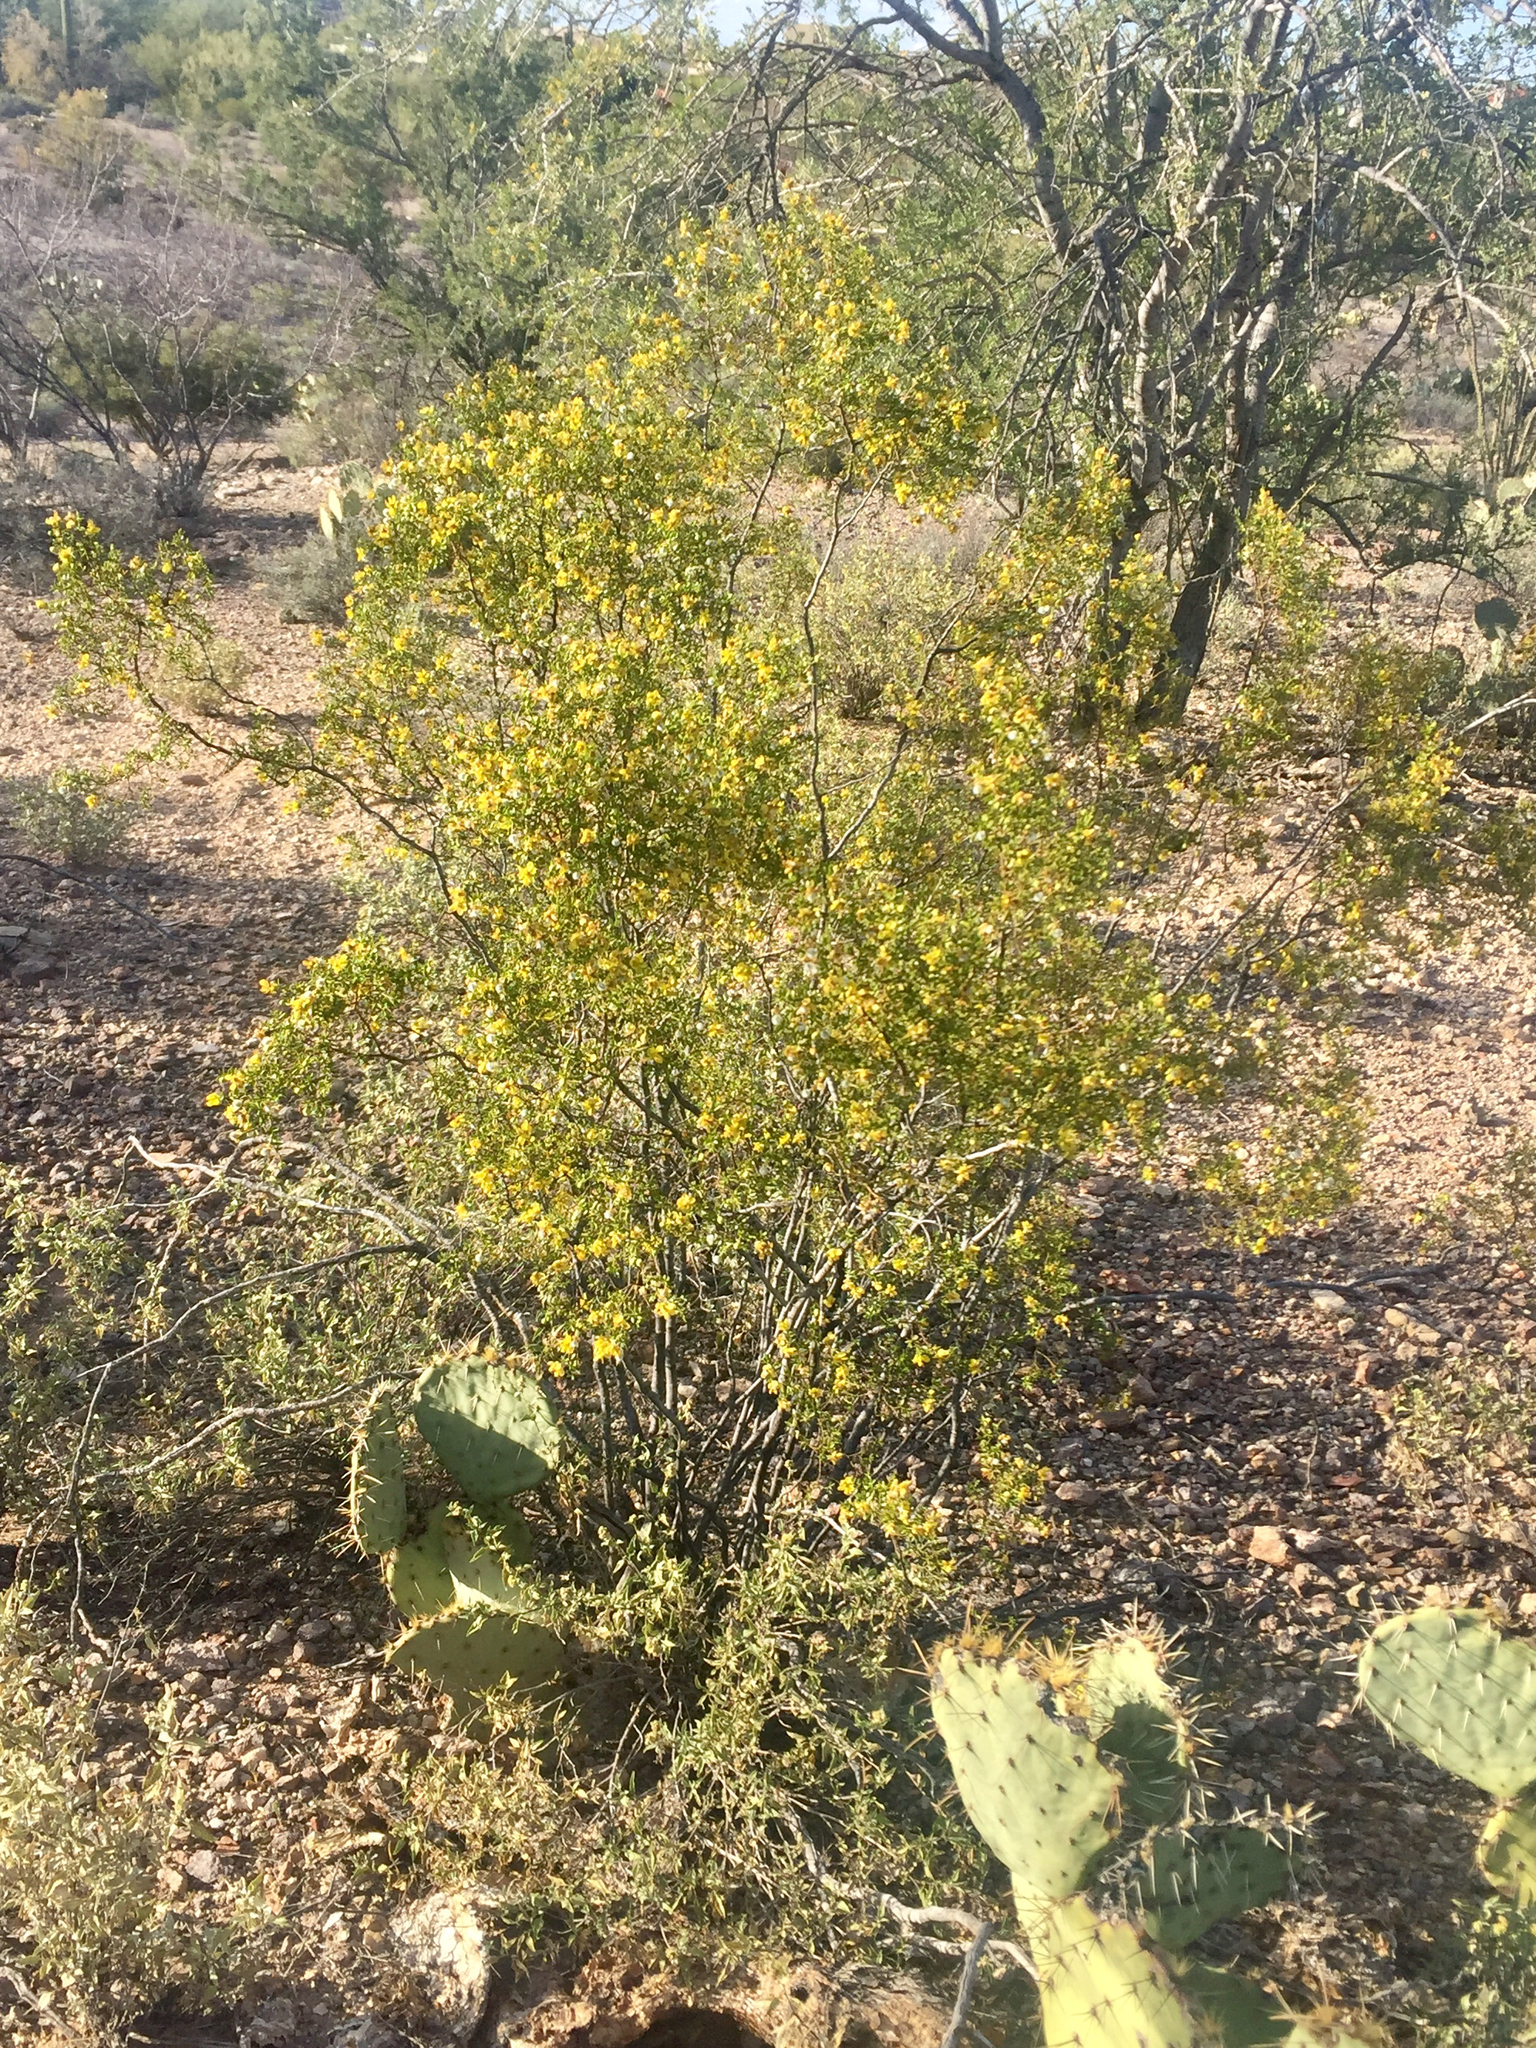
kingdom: Plantae
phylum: Tracheophyta
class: Magnoliopsida
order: Zygophyllales
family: Zygophyllaceae
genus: Larrea
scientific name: Larrea tridentata
